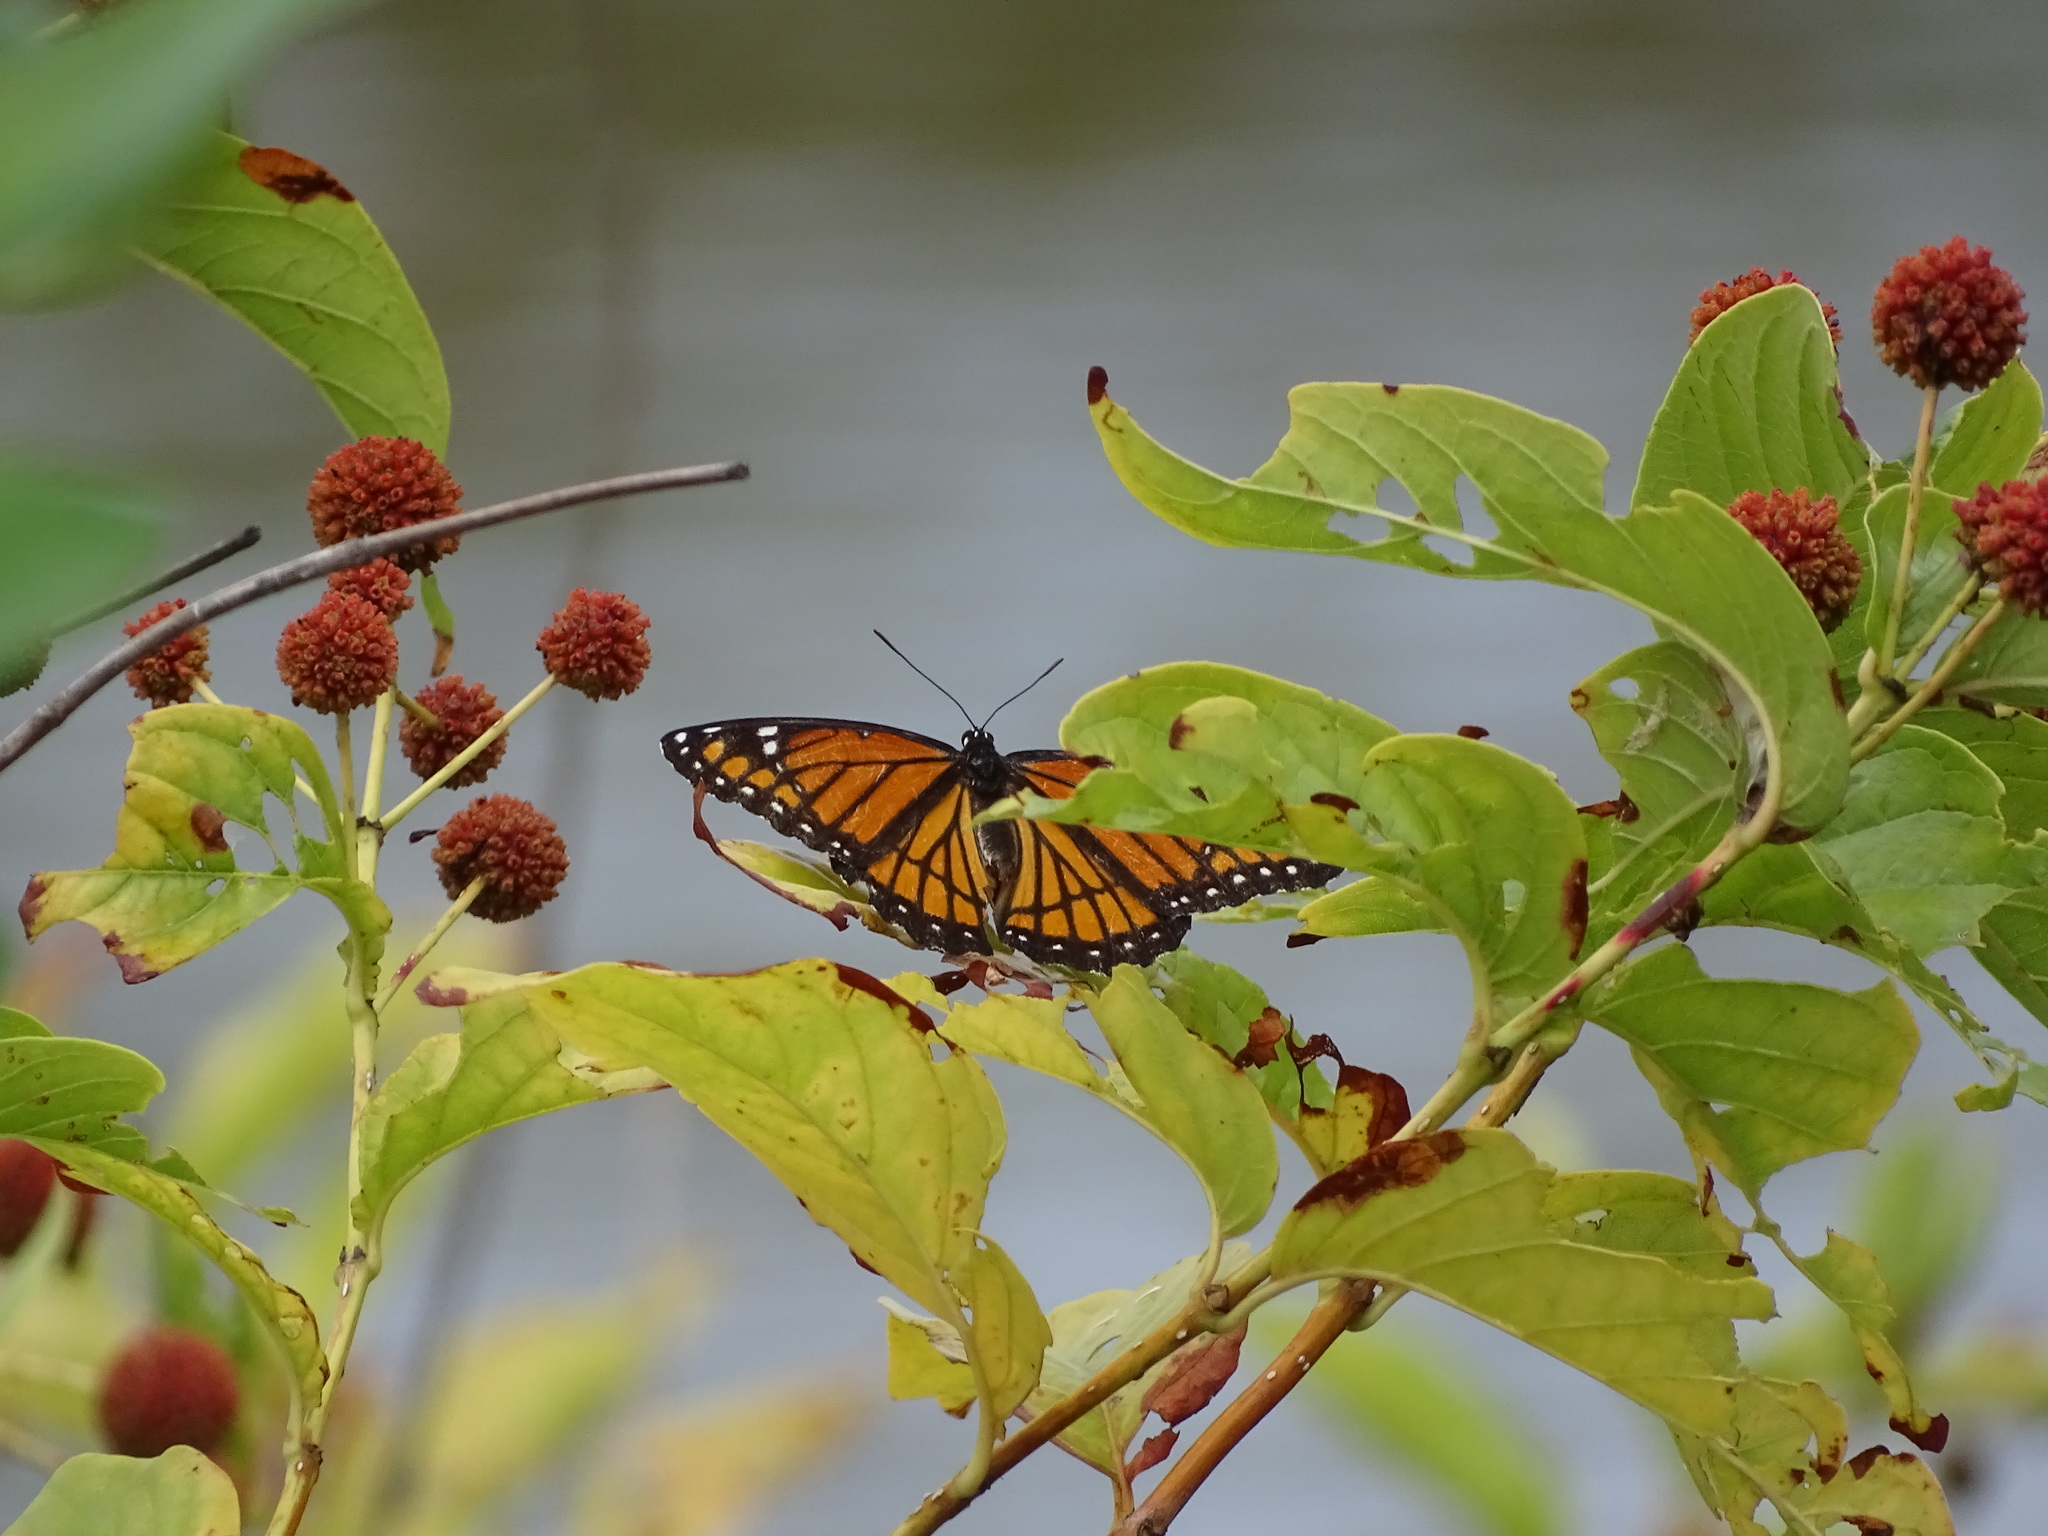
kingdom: Animalia
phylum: Arthropoda
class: Insecta
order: Lepidoptera
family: Nymphalidae
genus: Limenitis
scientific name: Limenitis archippus
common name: Viceroy
